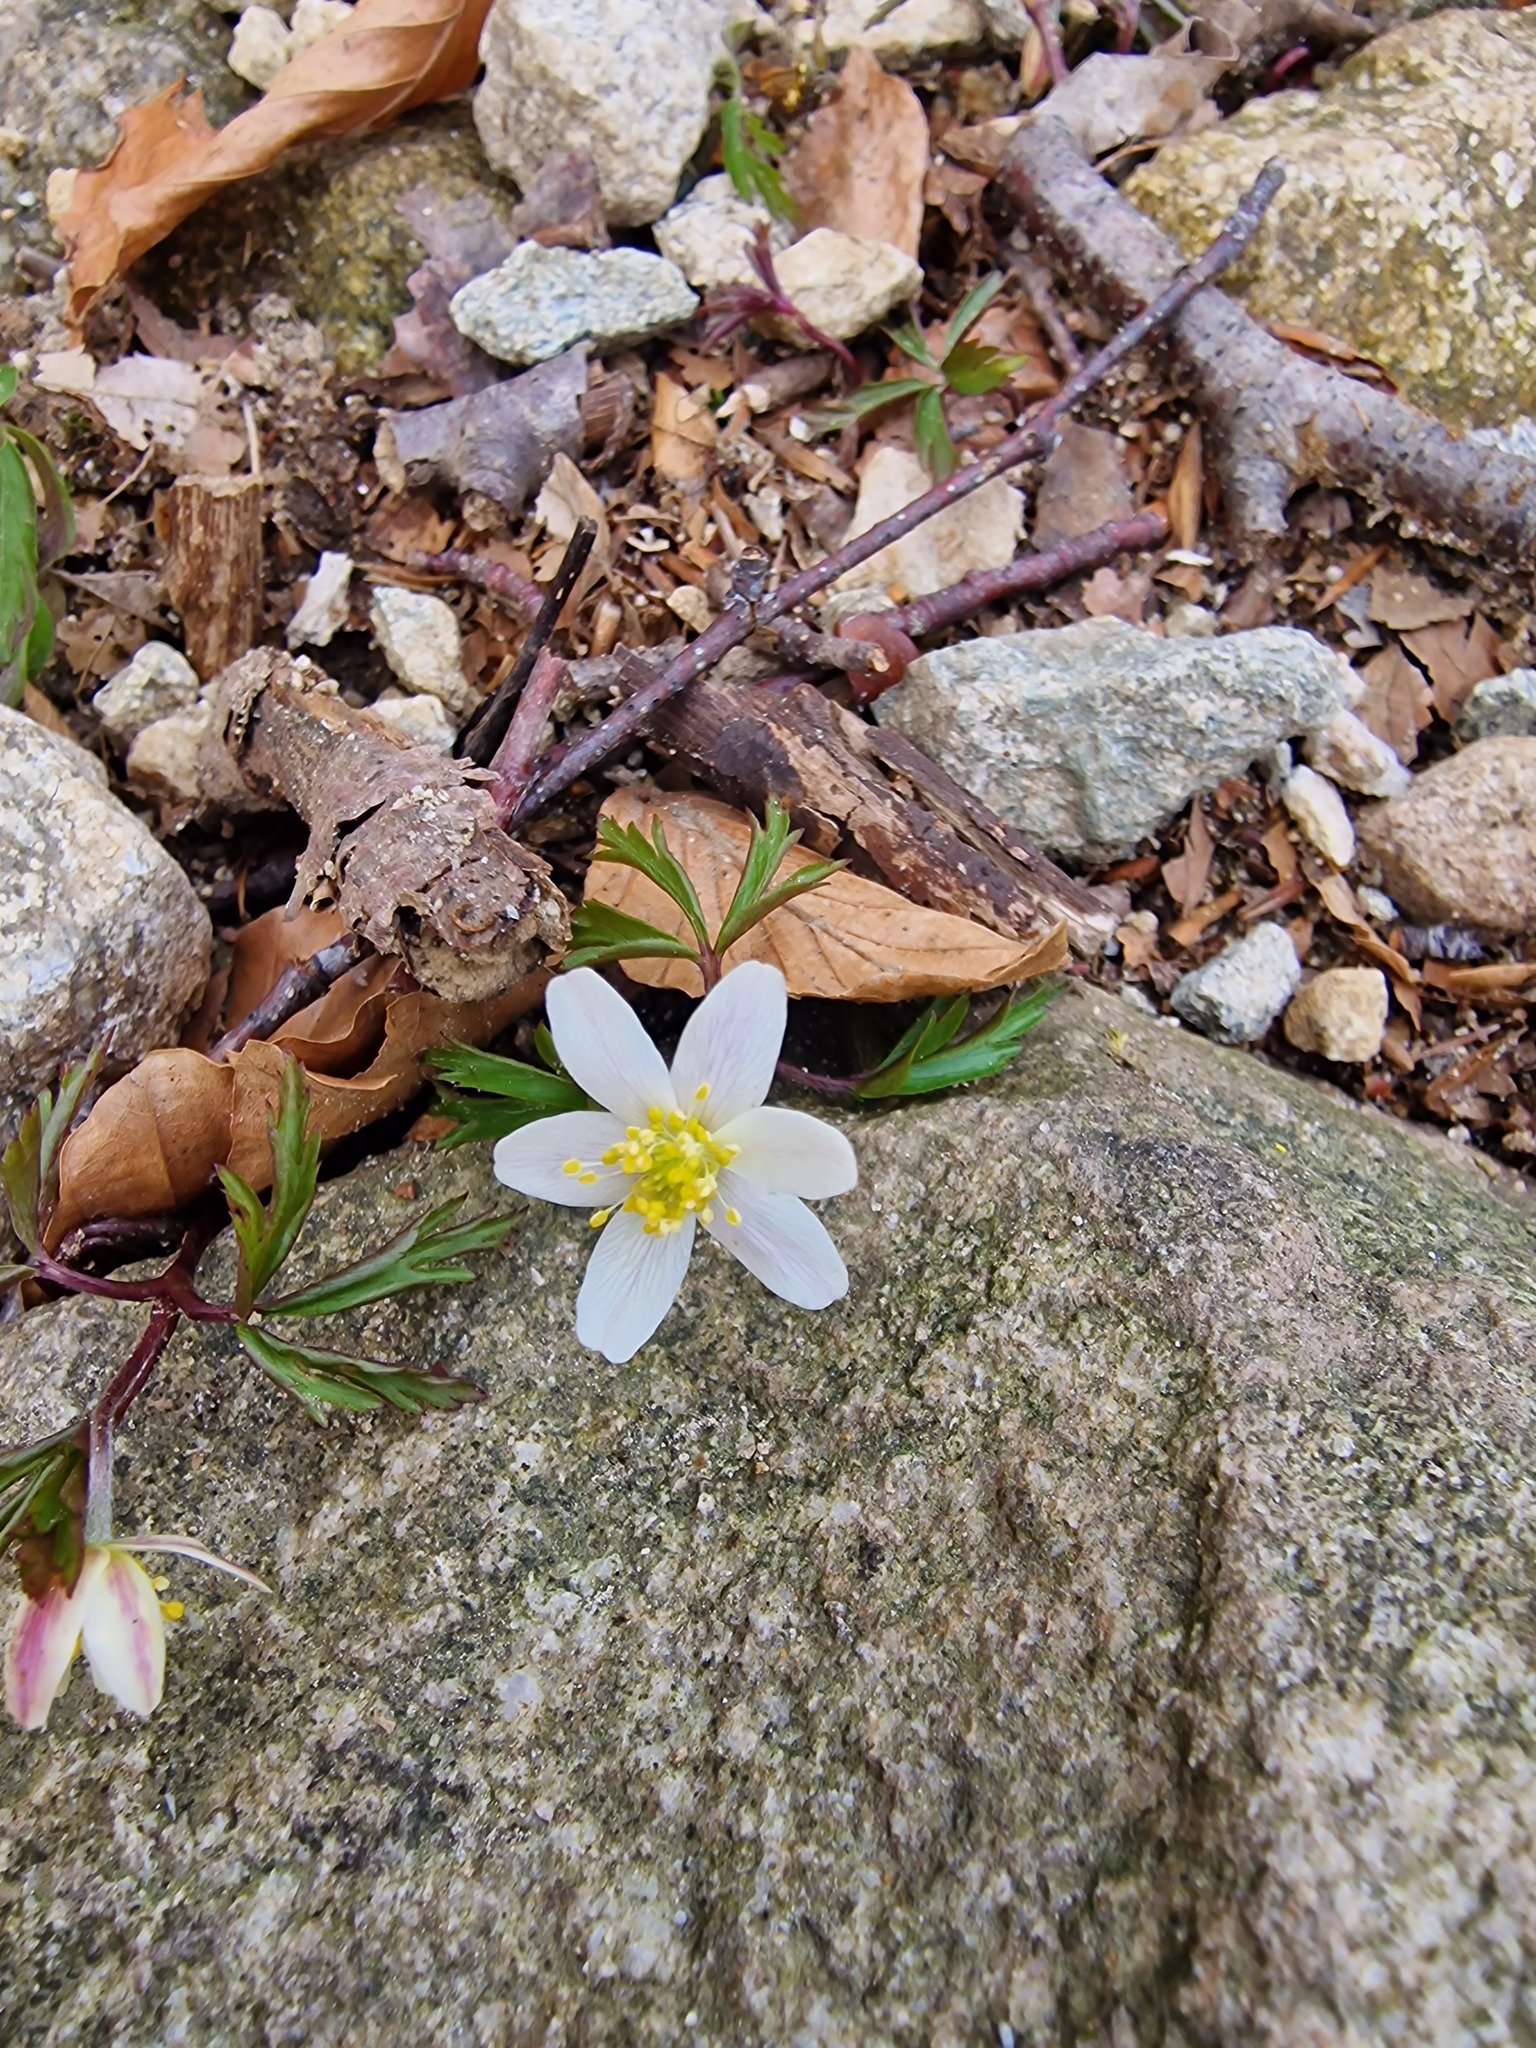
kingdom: Plantae
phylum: Tracheophyta
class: Magnoliopsida
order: Ranunculales
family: Ranunculaceae
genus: Anemone
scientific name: Anemone nemorosa
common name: Wood anemone
